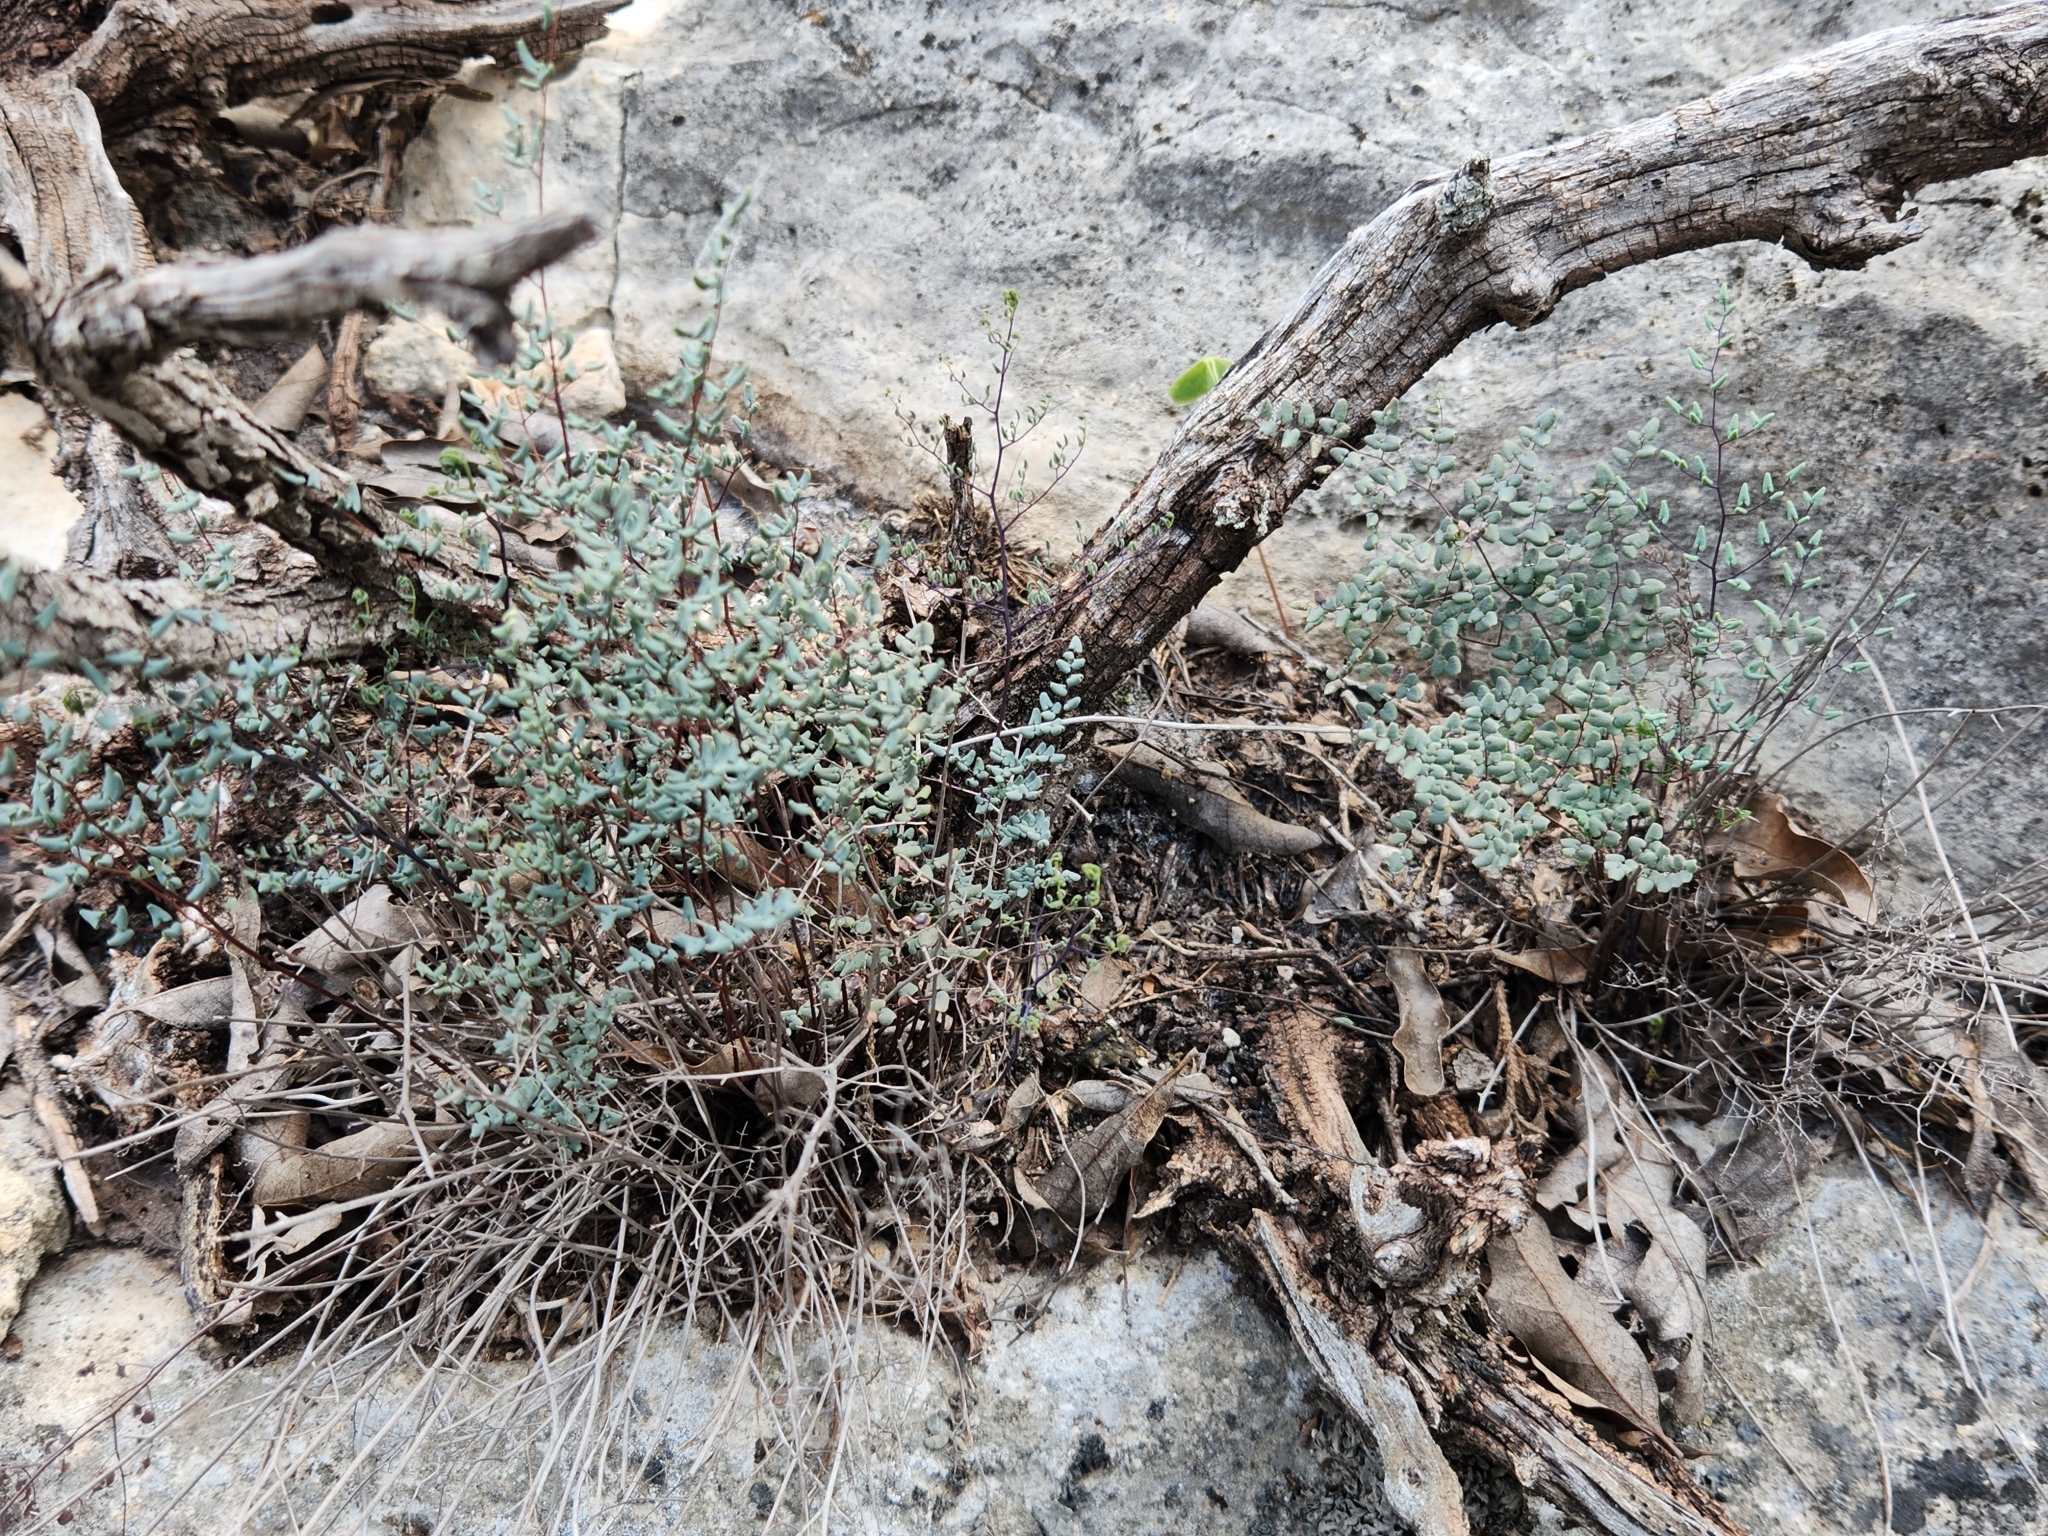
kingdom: Plantae
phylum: Tracheophyta
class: Polypodiopsida
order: Polypodiales
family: Pteridaceae
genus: Argyrochosma
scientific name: Argyrochosma microphylla
